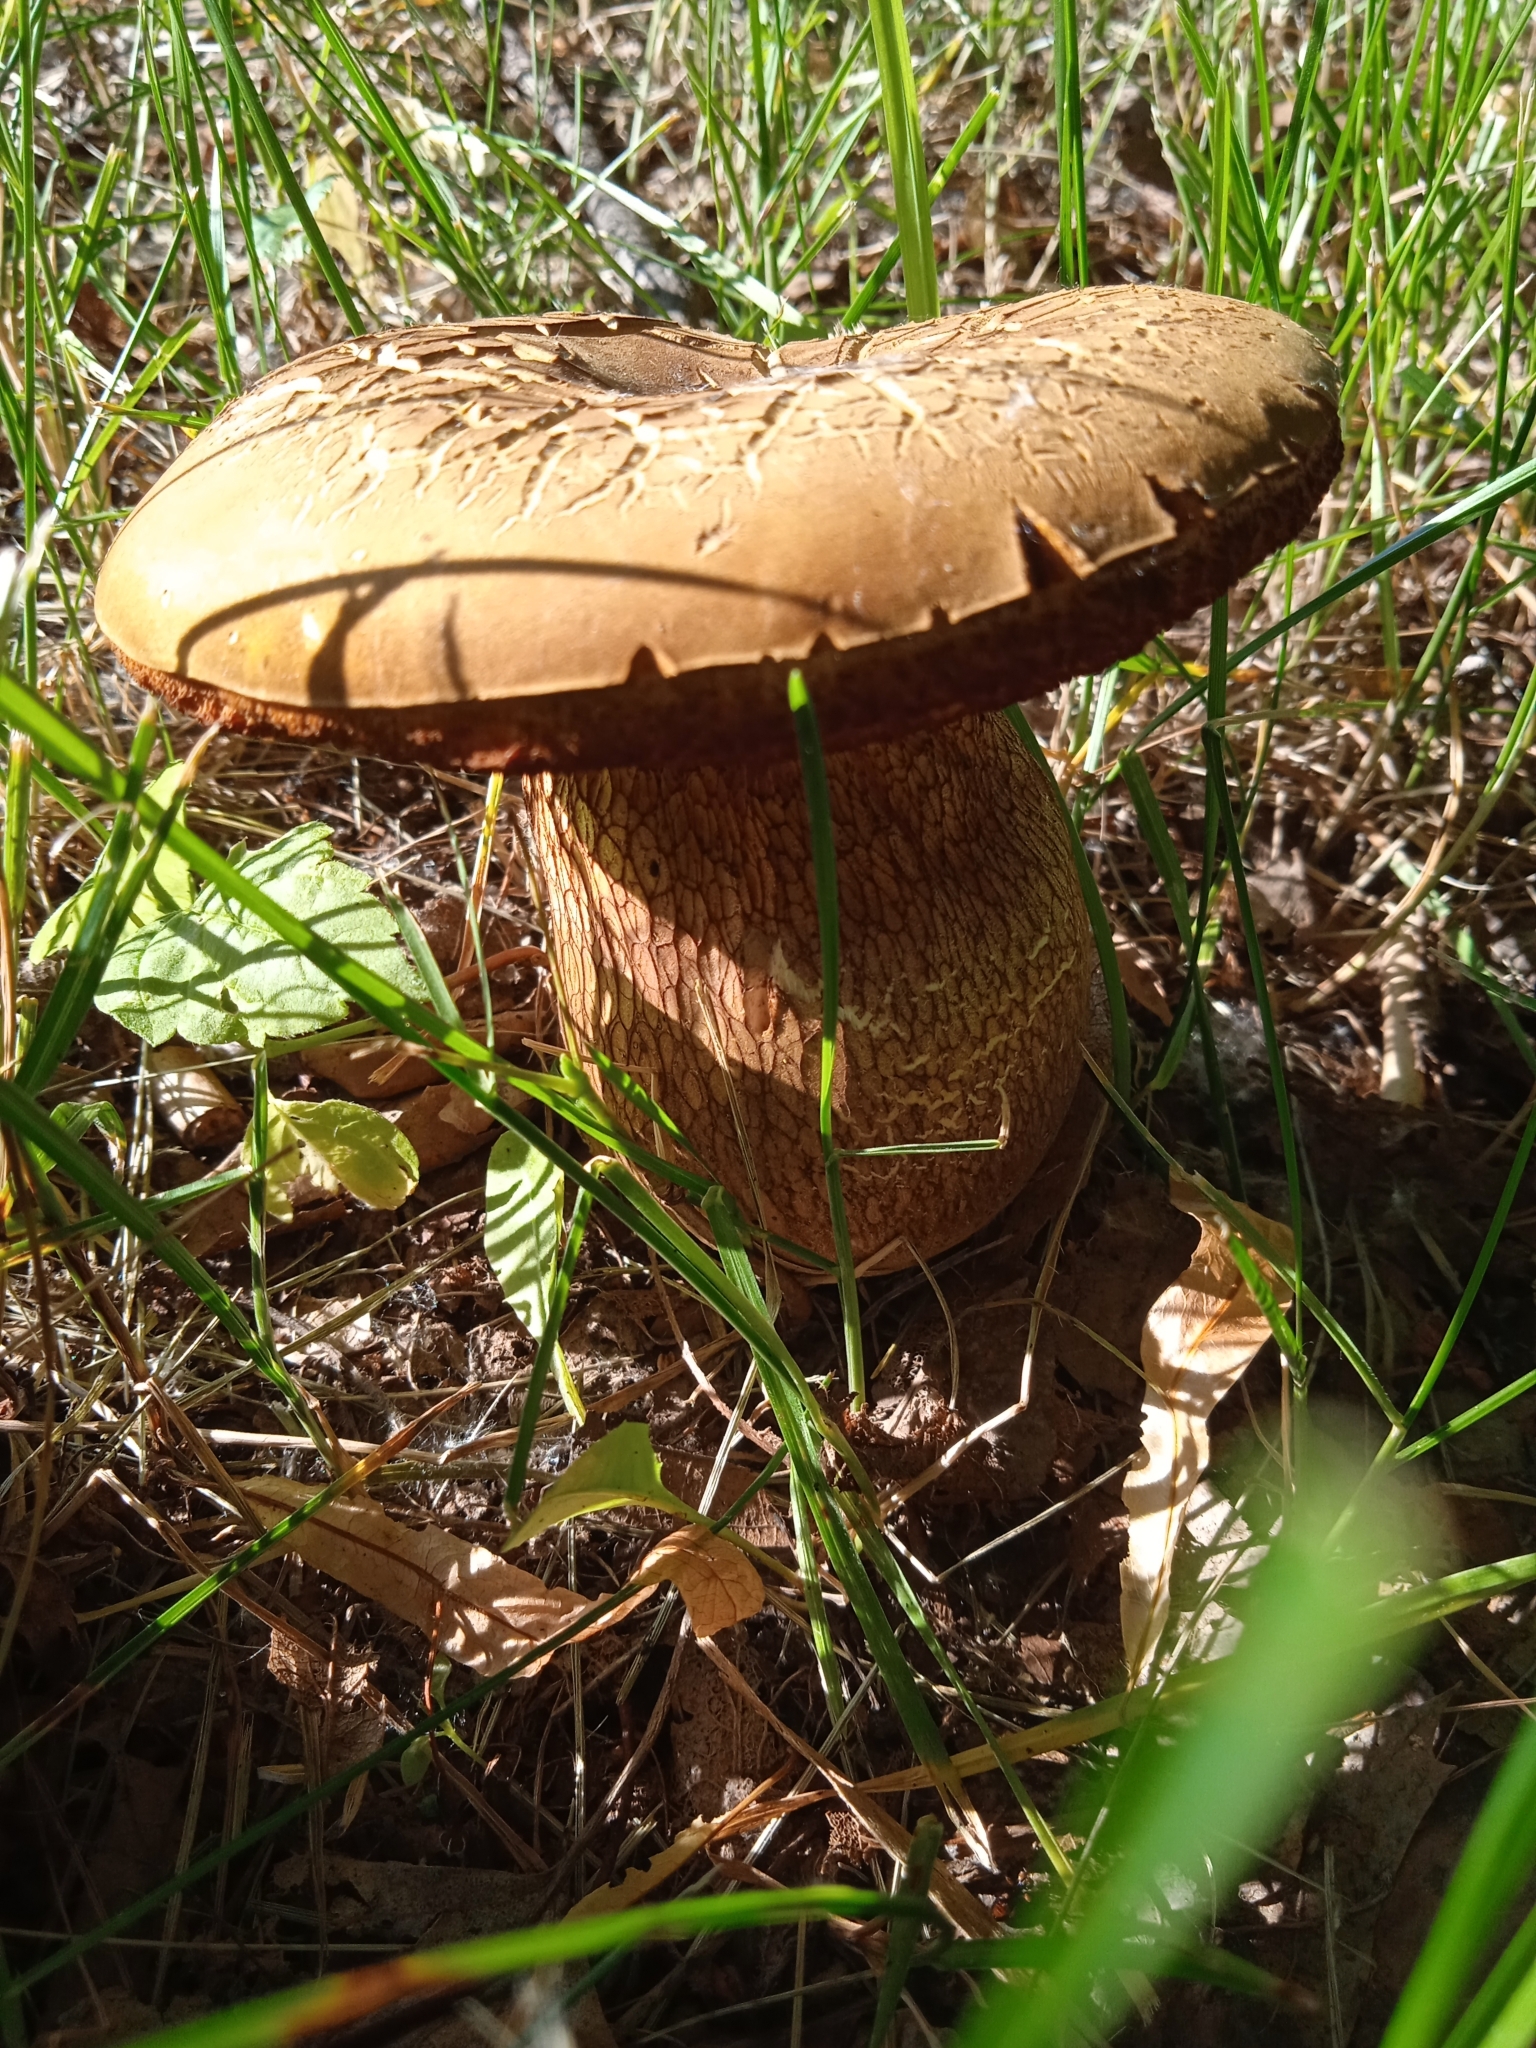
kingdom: Fungi
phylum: Basidiomycota
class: Agaricomycetes
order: Boletales
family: Boletaceae
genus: Suillellus
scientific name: Suillellus luridus
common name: Lurid bolete
